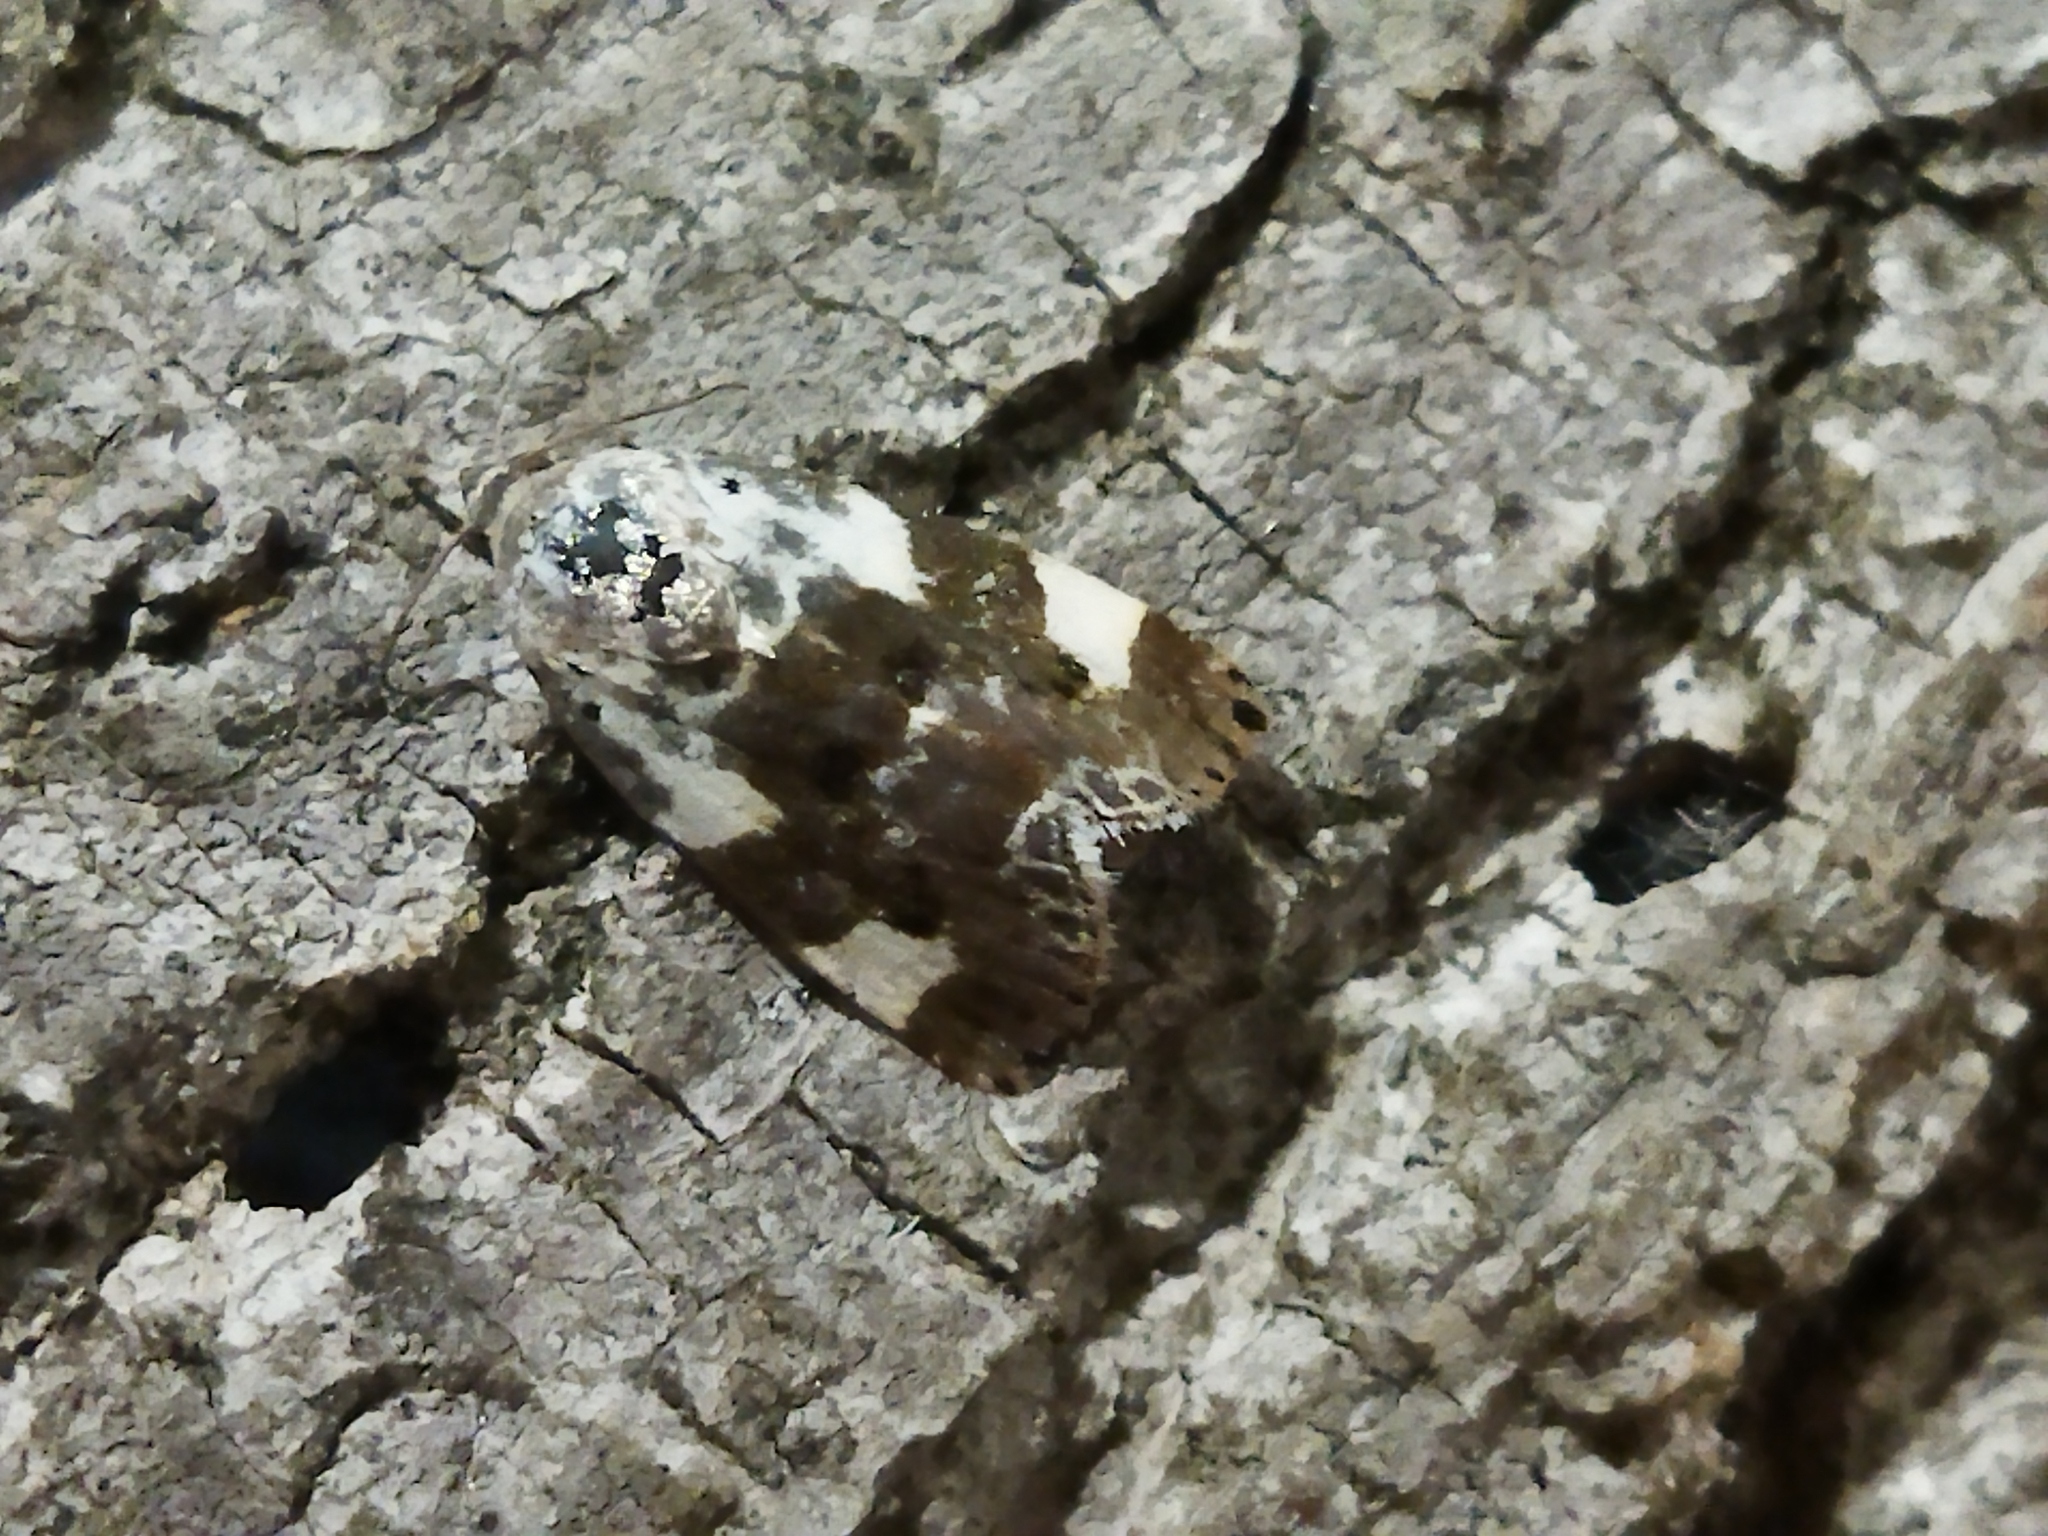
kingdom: Animalia
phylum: Arthropoda
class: Insecta
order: Lepidoptera
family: Noctuidae
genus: Acontia
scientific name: Acontia lucida
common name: Pale shoulder
